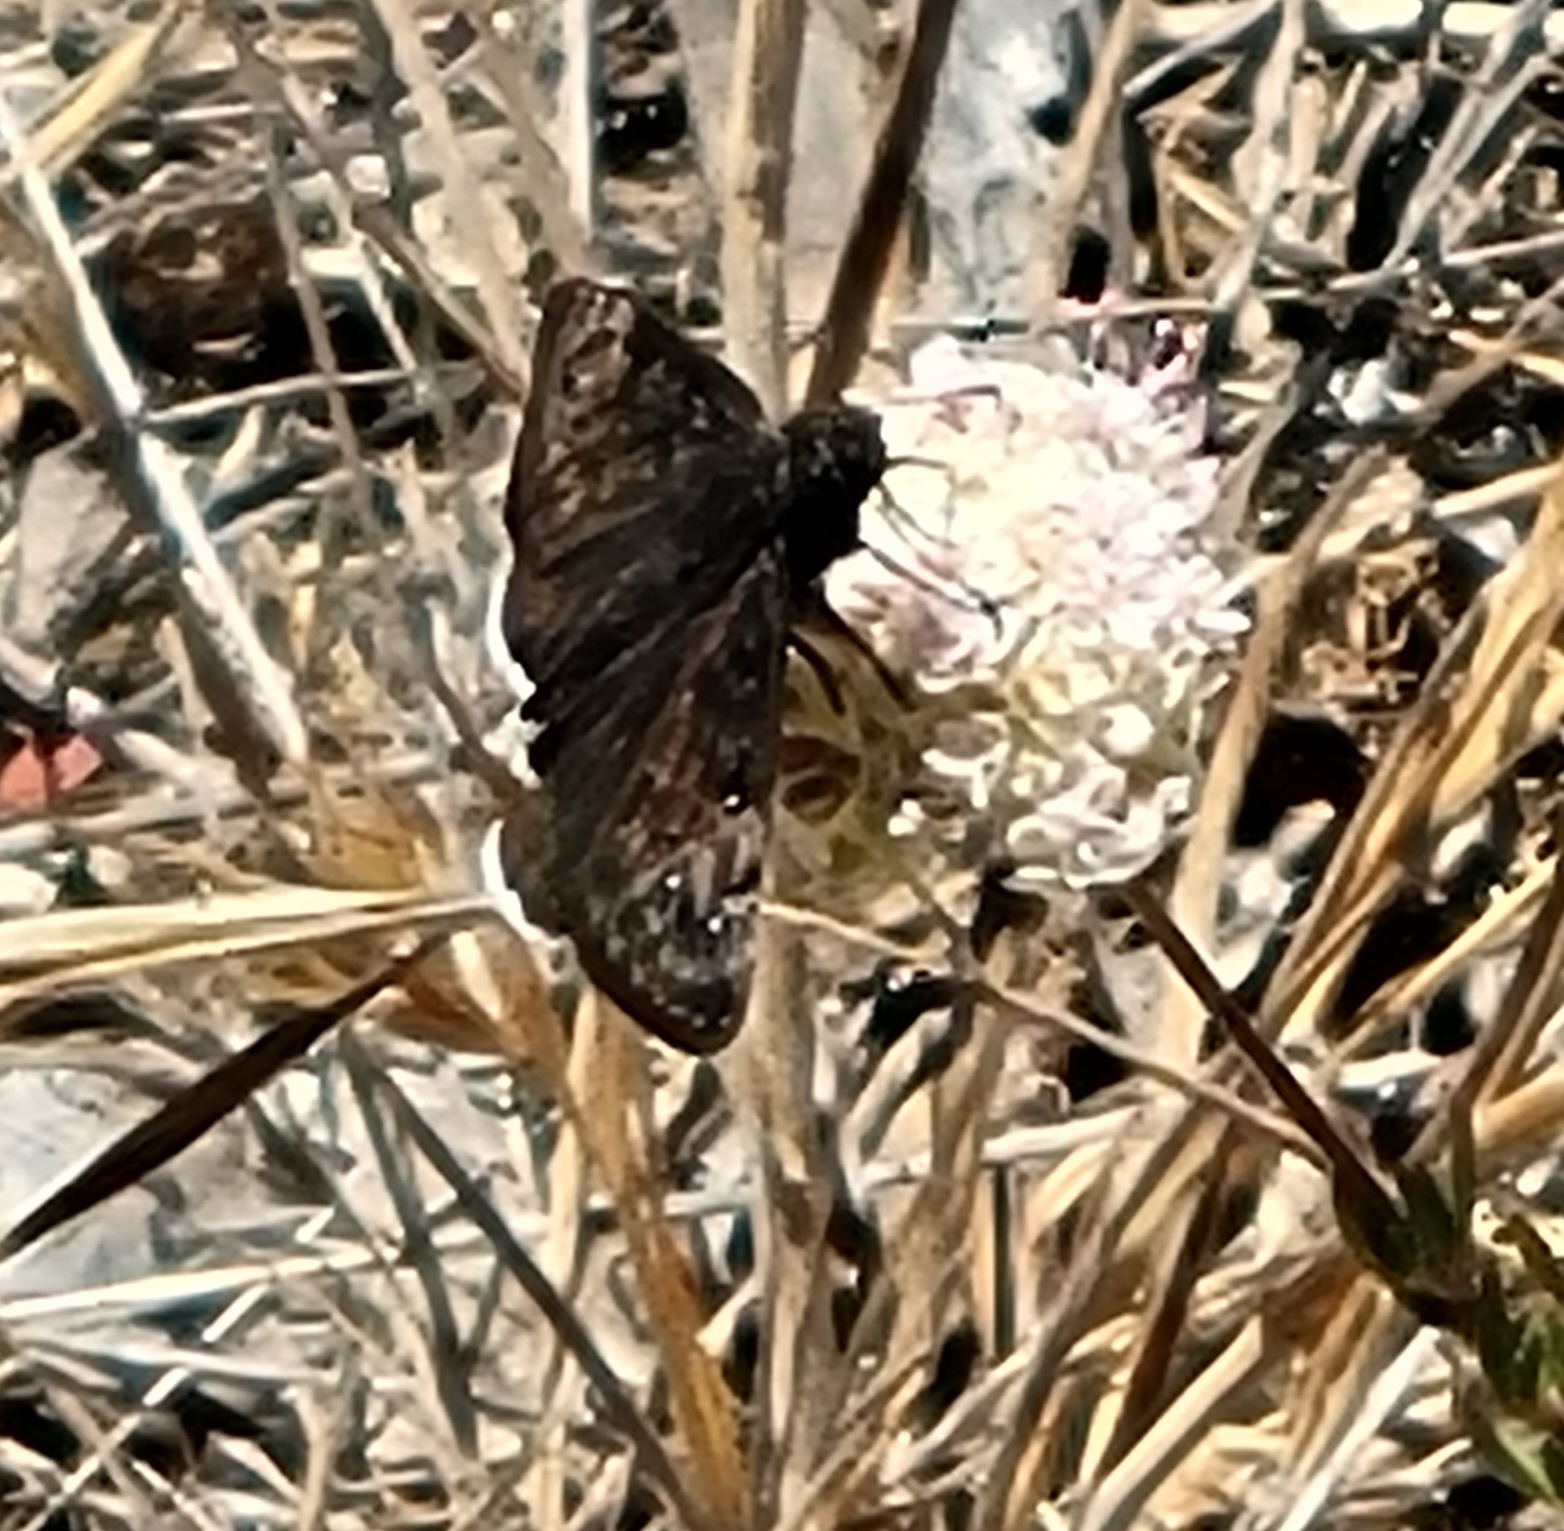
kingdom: Animalia
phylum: Arthropoda
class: Insecta
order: Lepidoptera
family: Hesperiidae
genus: Erynnis
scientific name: Erynnis tristis
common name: Mournful duskywing
